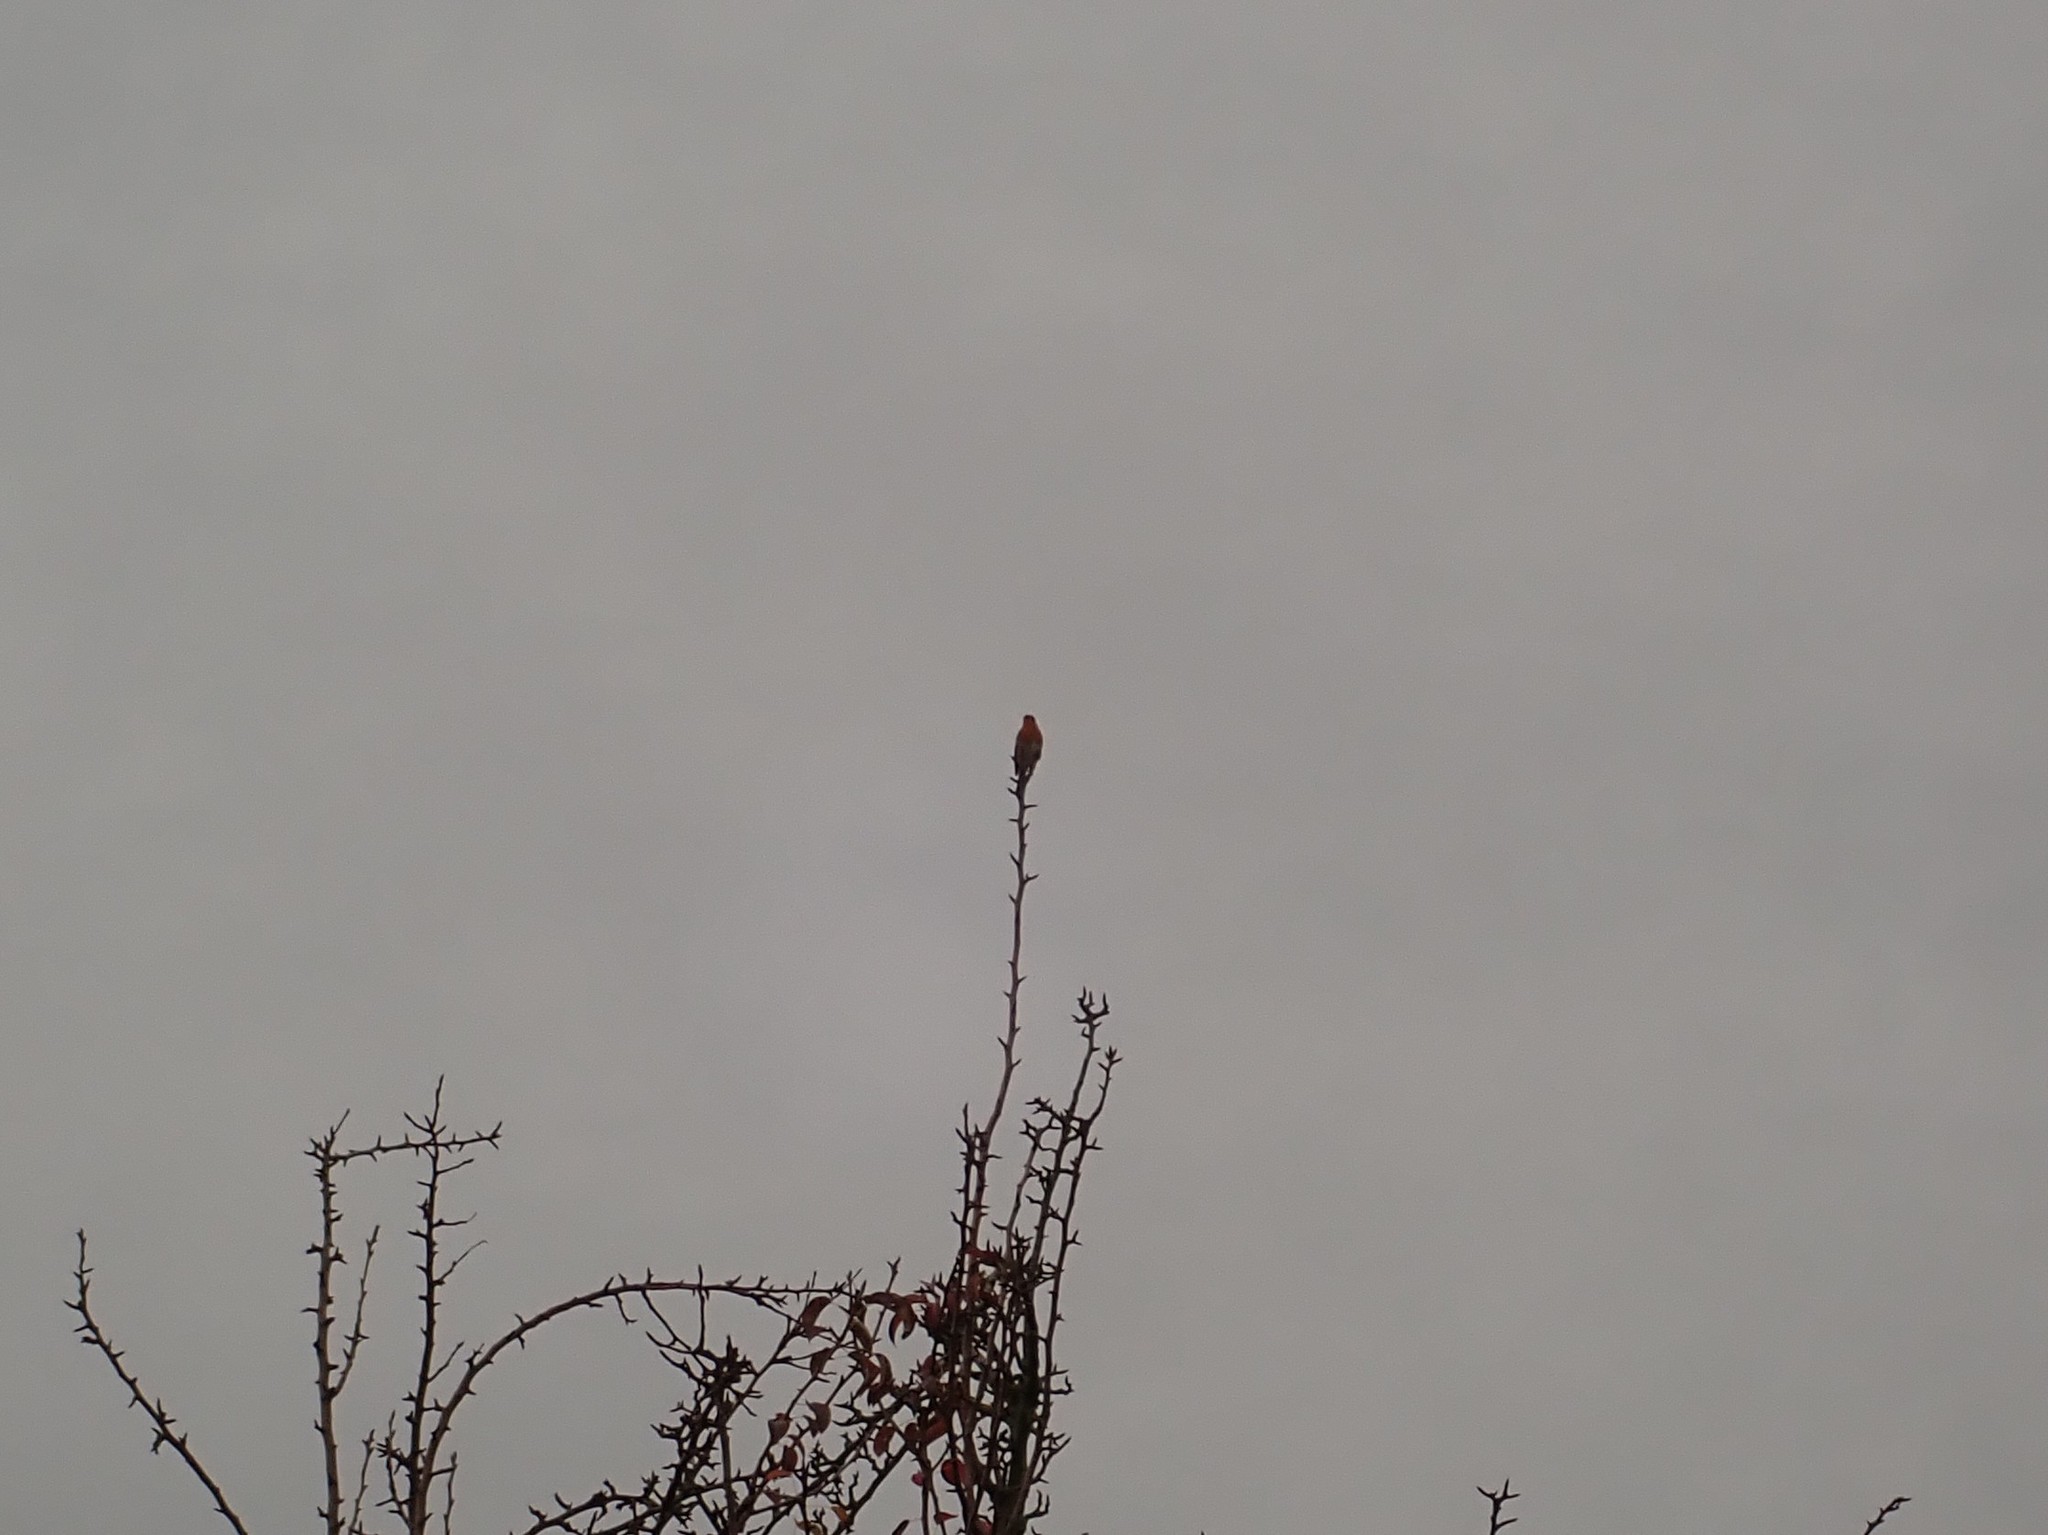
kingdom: Animalia
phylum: Chordata
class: Aves
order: Passeriformes
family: Muscicapidae
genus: Erithacus
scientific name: Erithacus rubecula
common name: European robin
